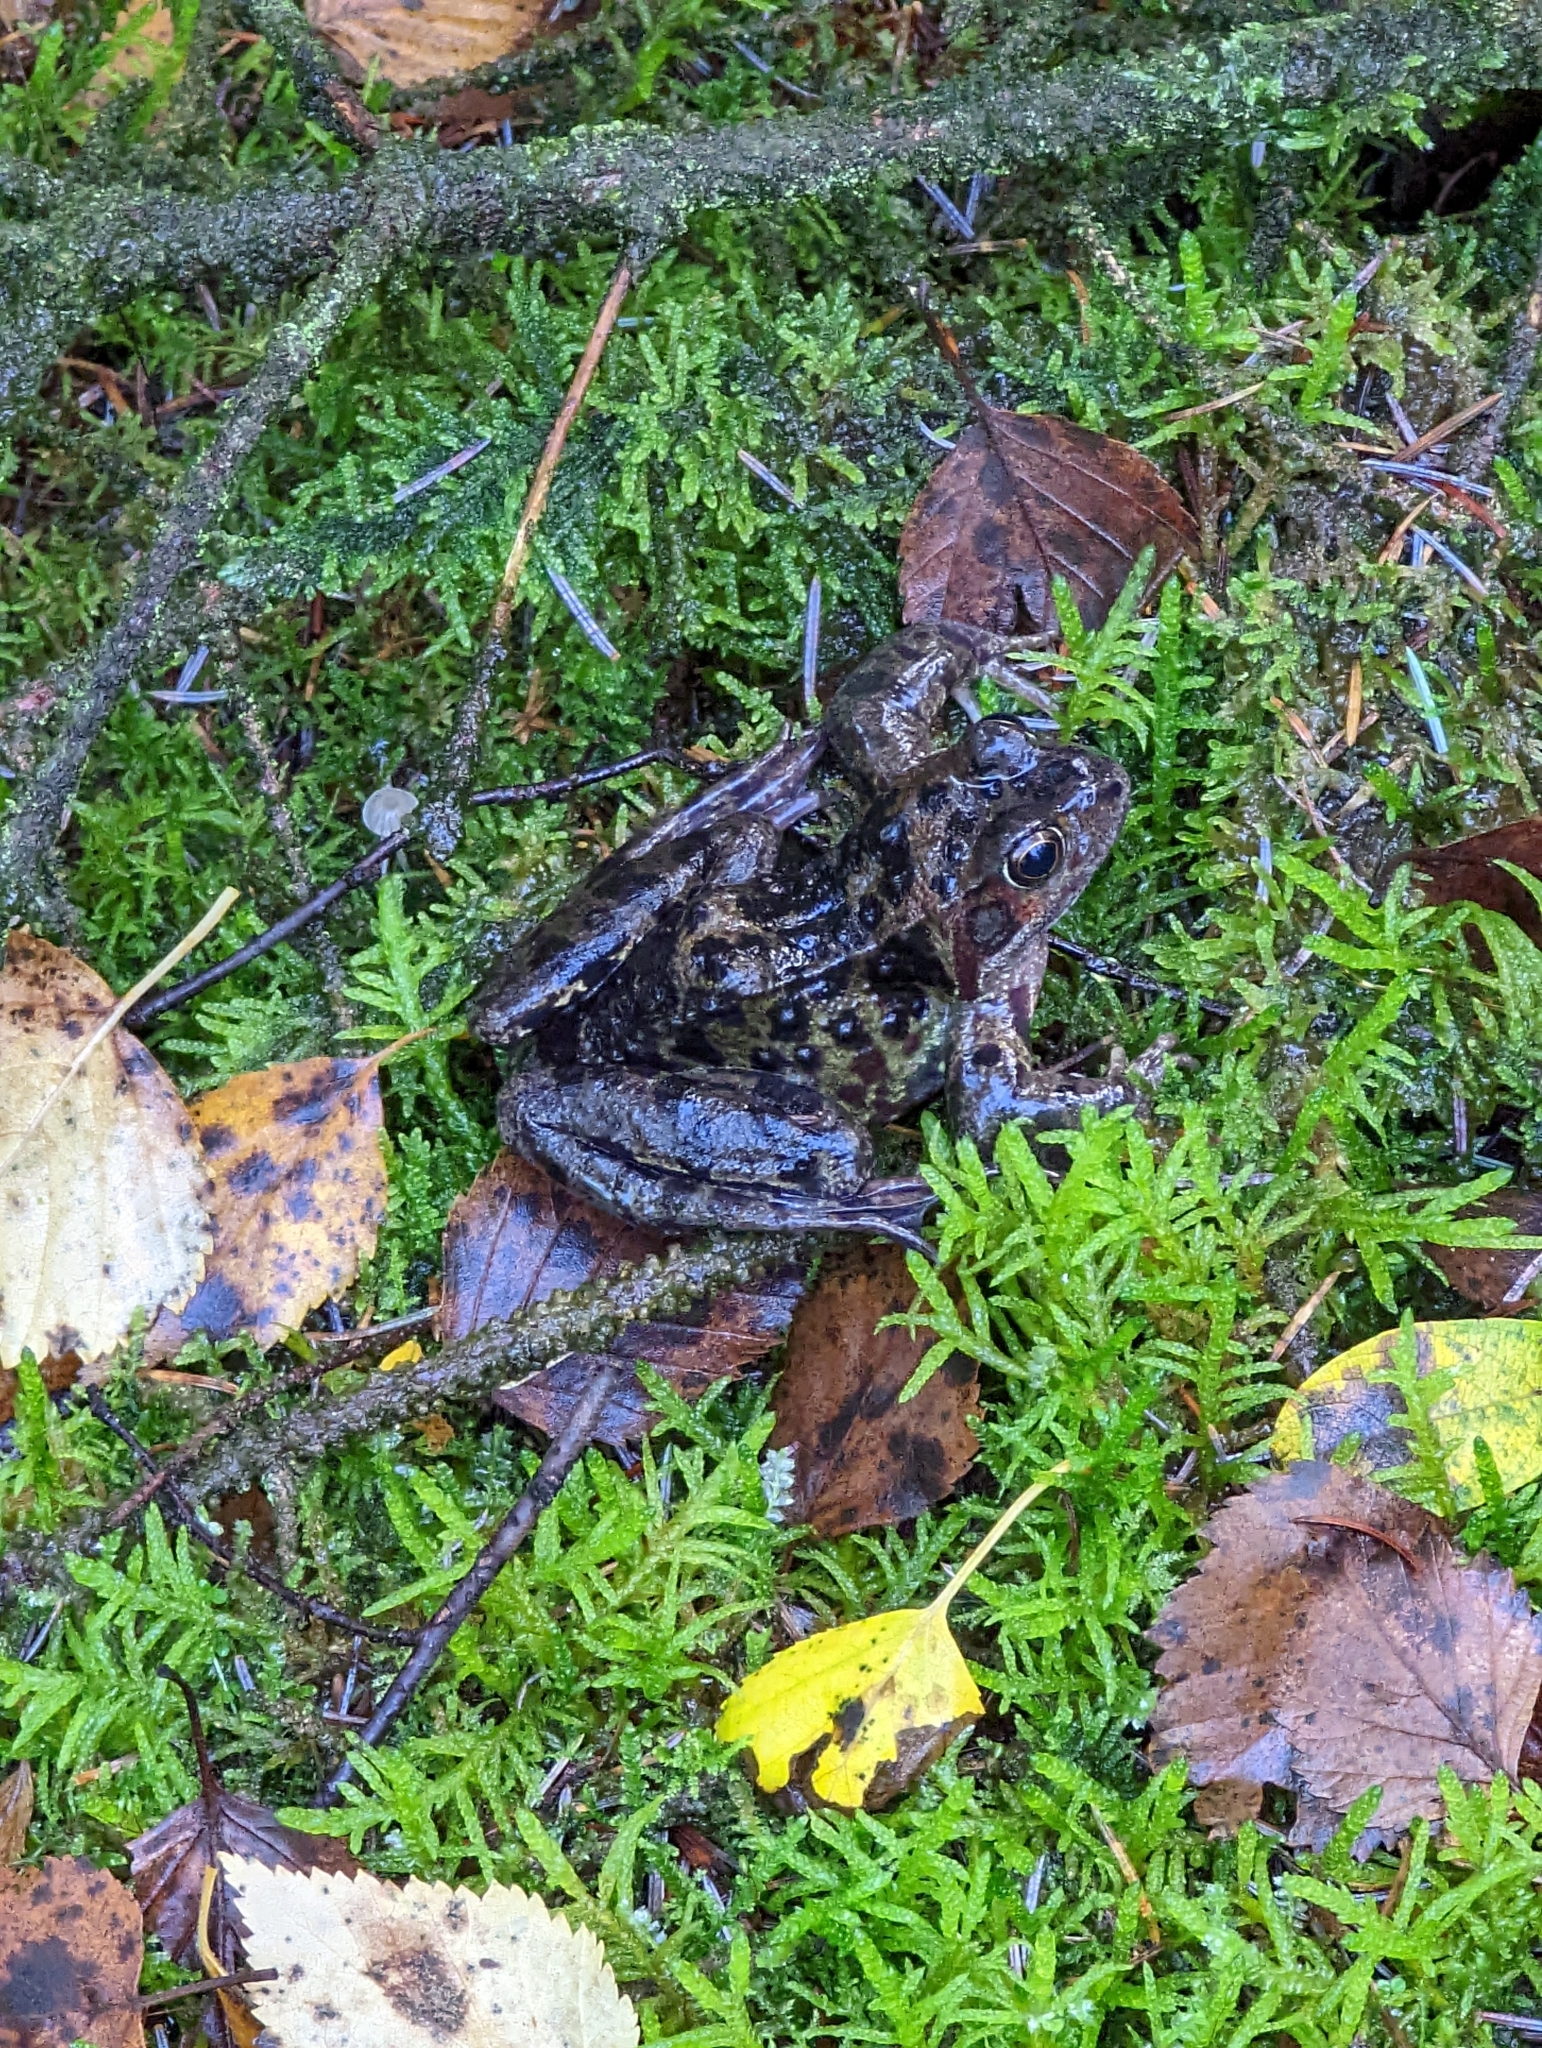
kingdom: Animalia
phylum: Chordata
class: Amphibia
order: Anura
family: Ranidae
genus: Rana
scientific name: Rana temporaria
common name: Common frog
